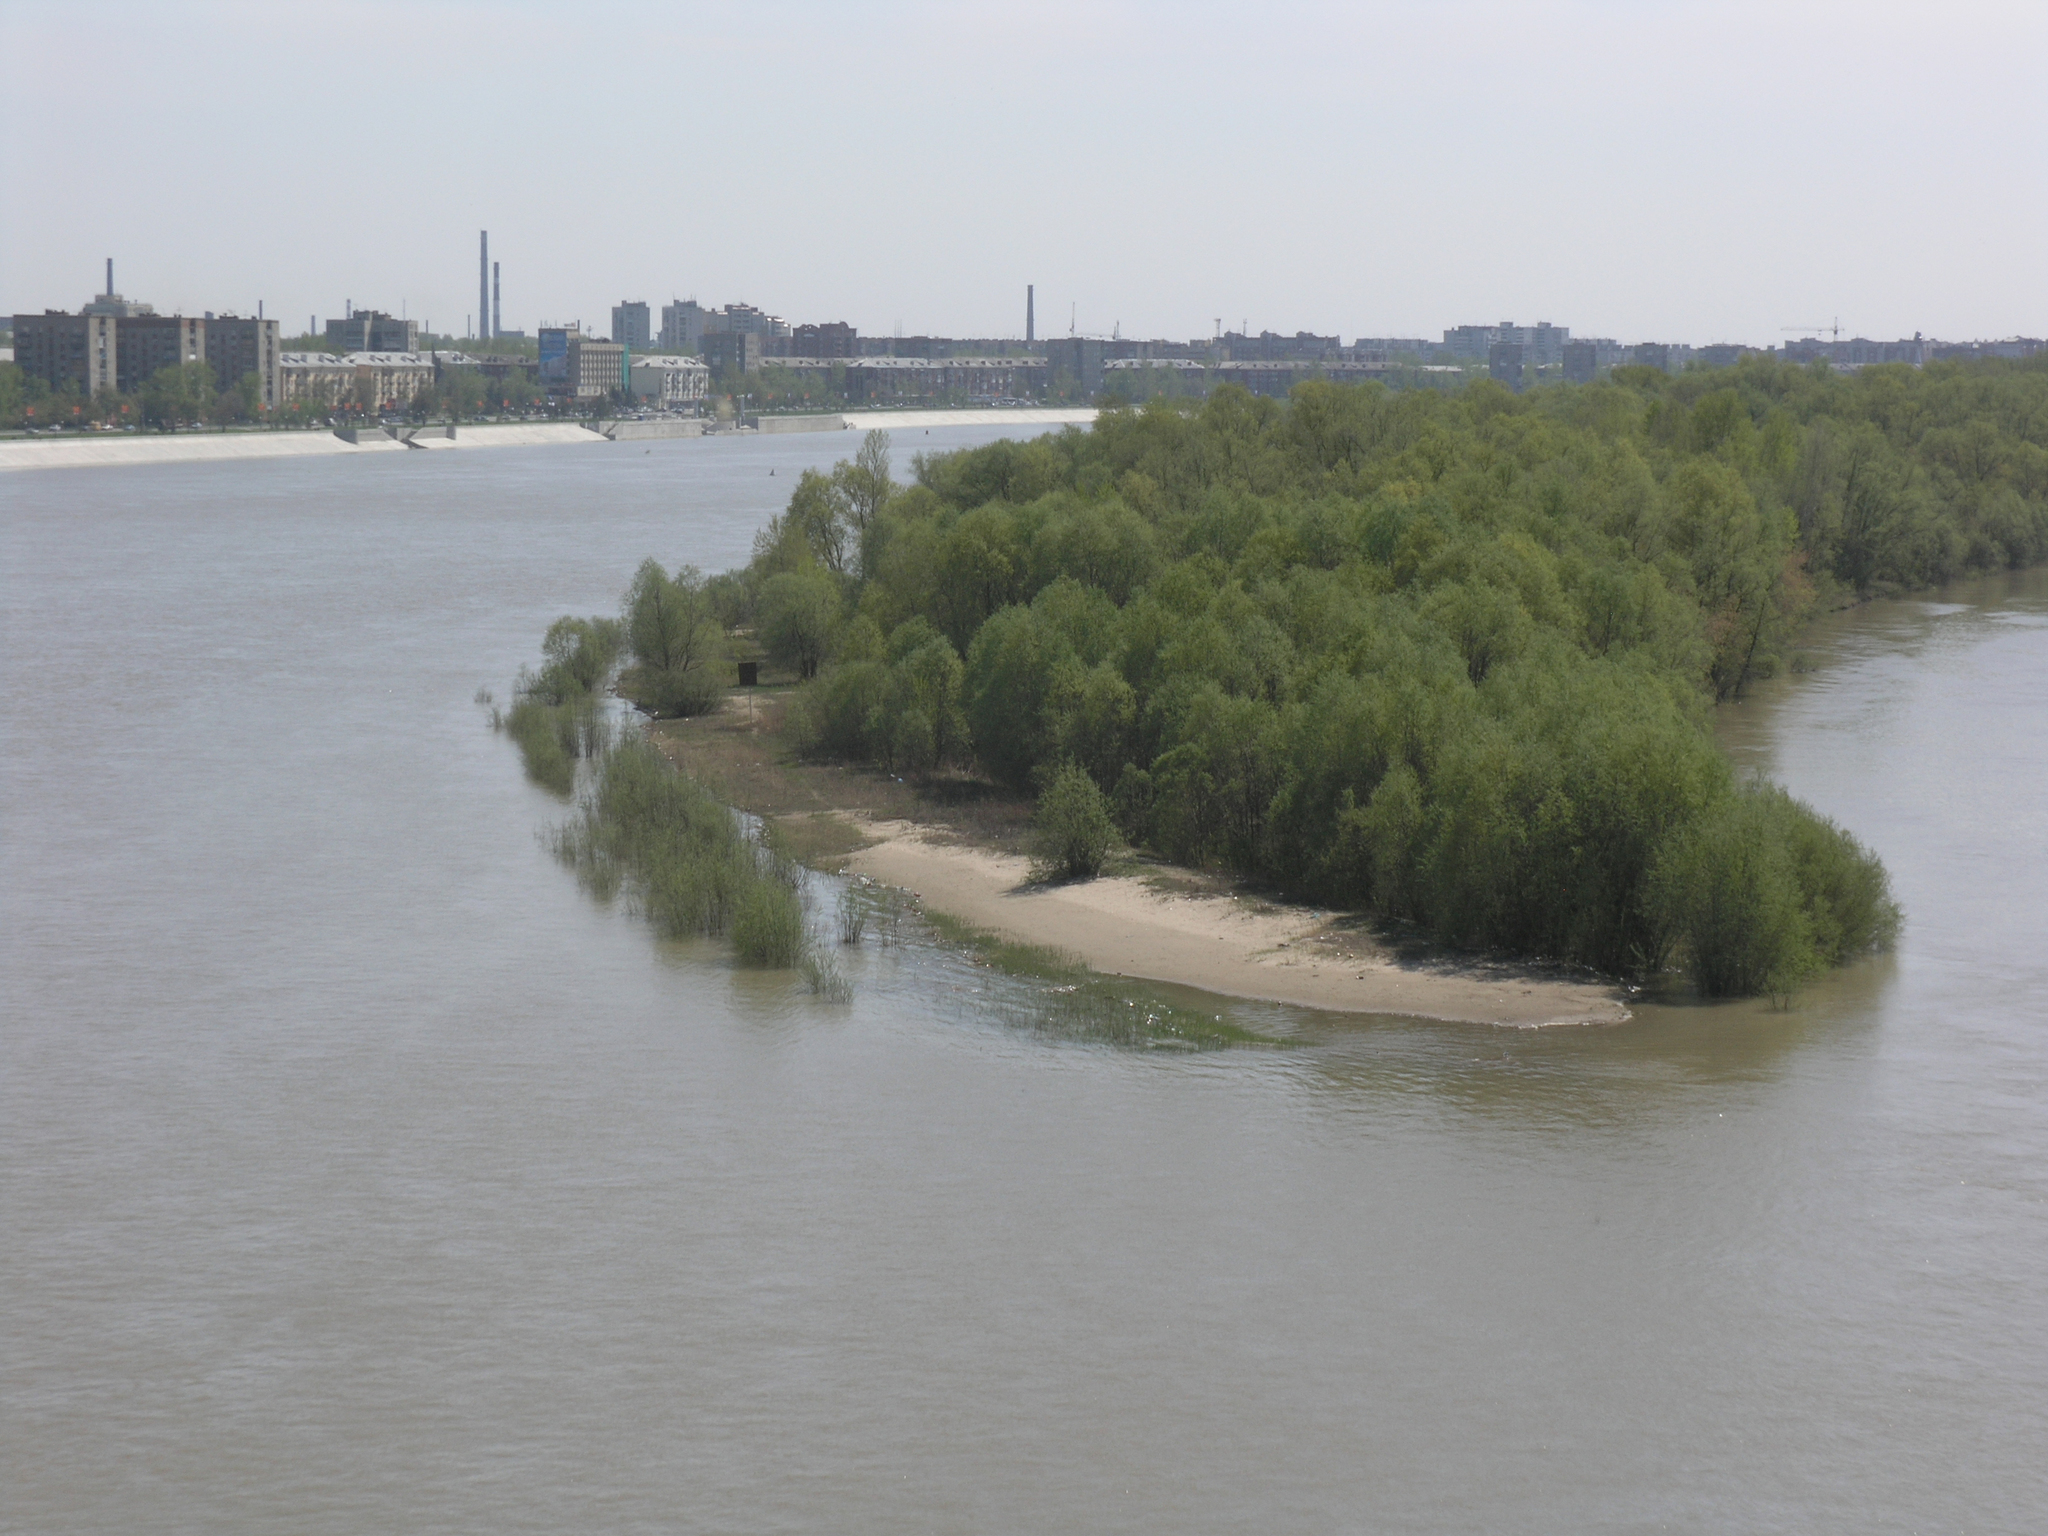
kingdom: Plantae
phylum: Tracheophyta
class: Magnoliopsida
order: Malpighiales
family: Salicaceae
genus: Salix
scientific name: Salix alba
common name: White willow
